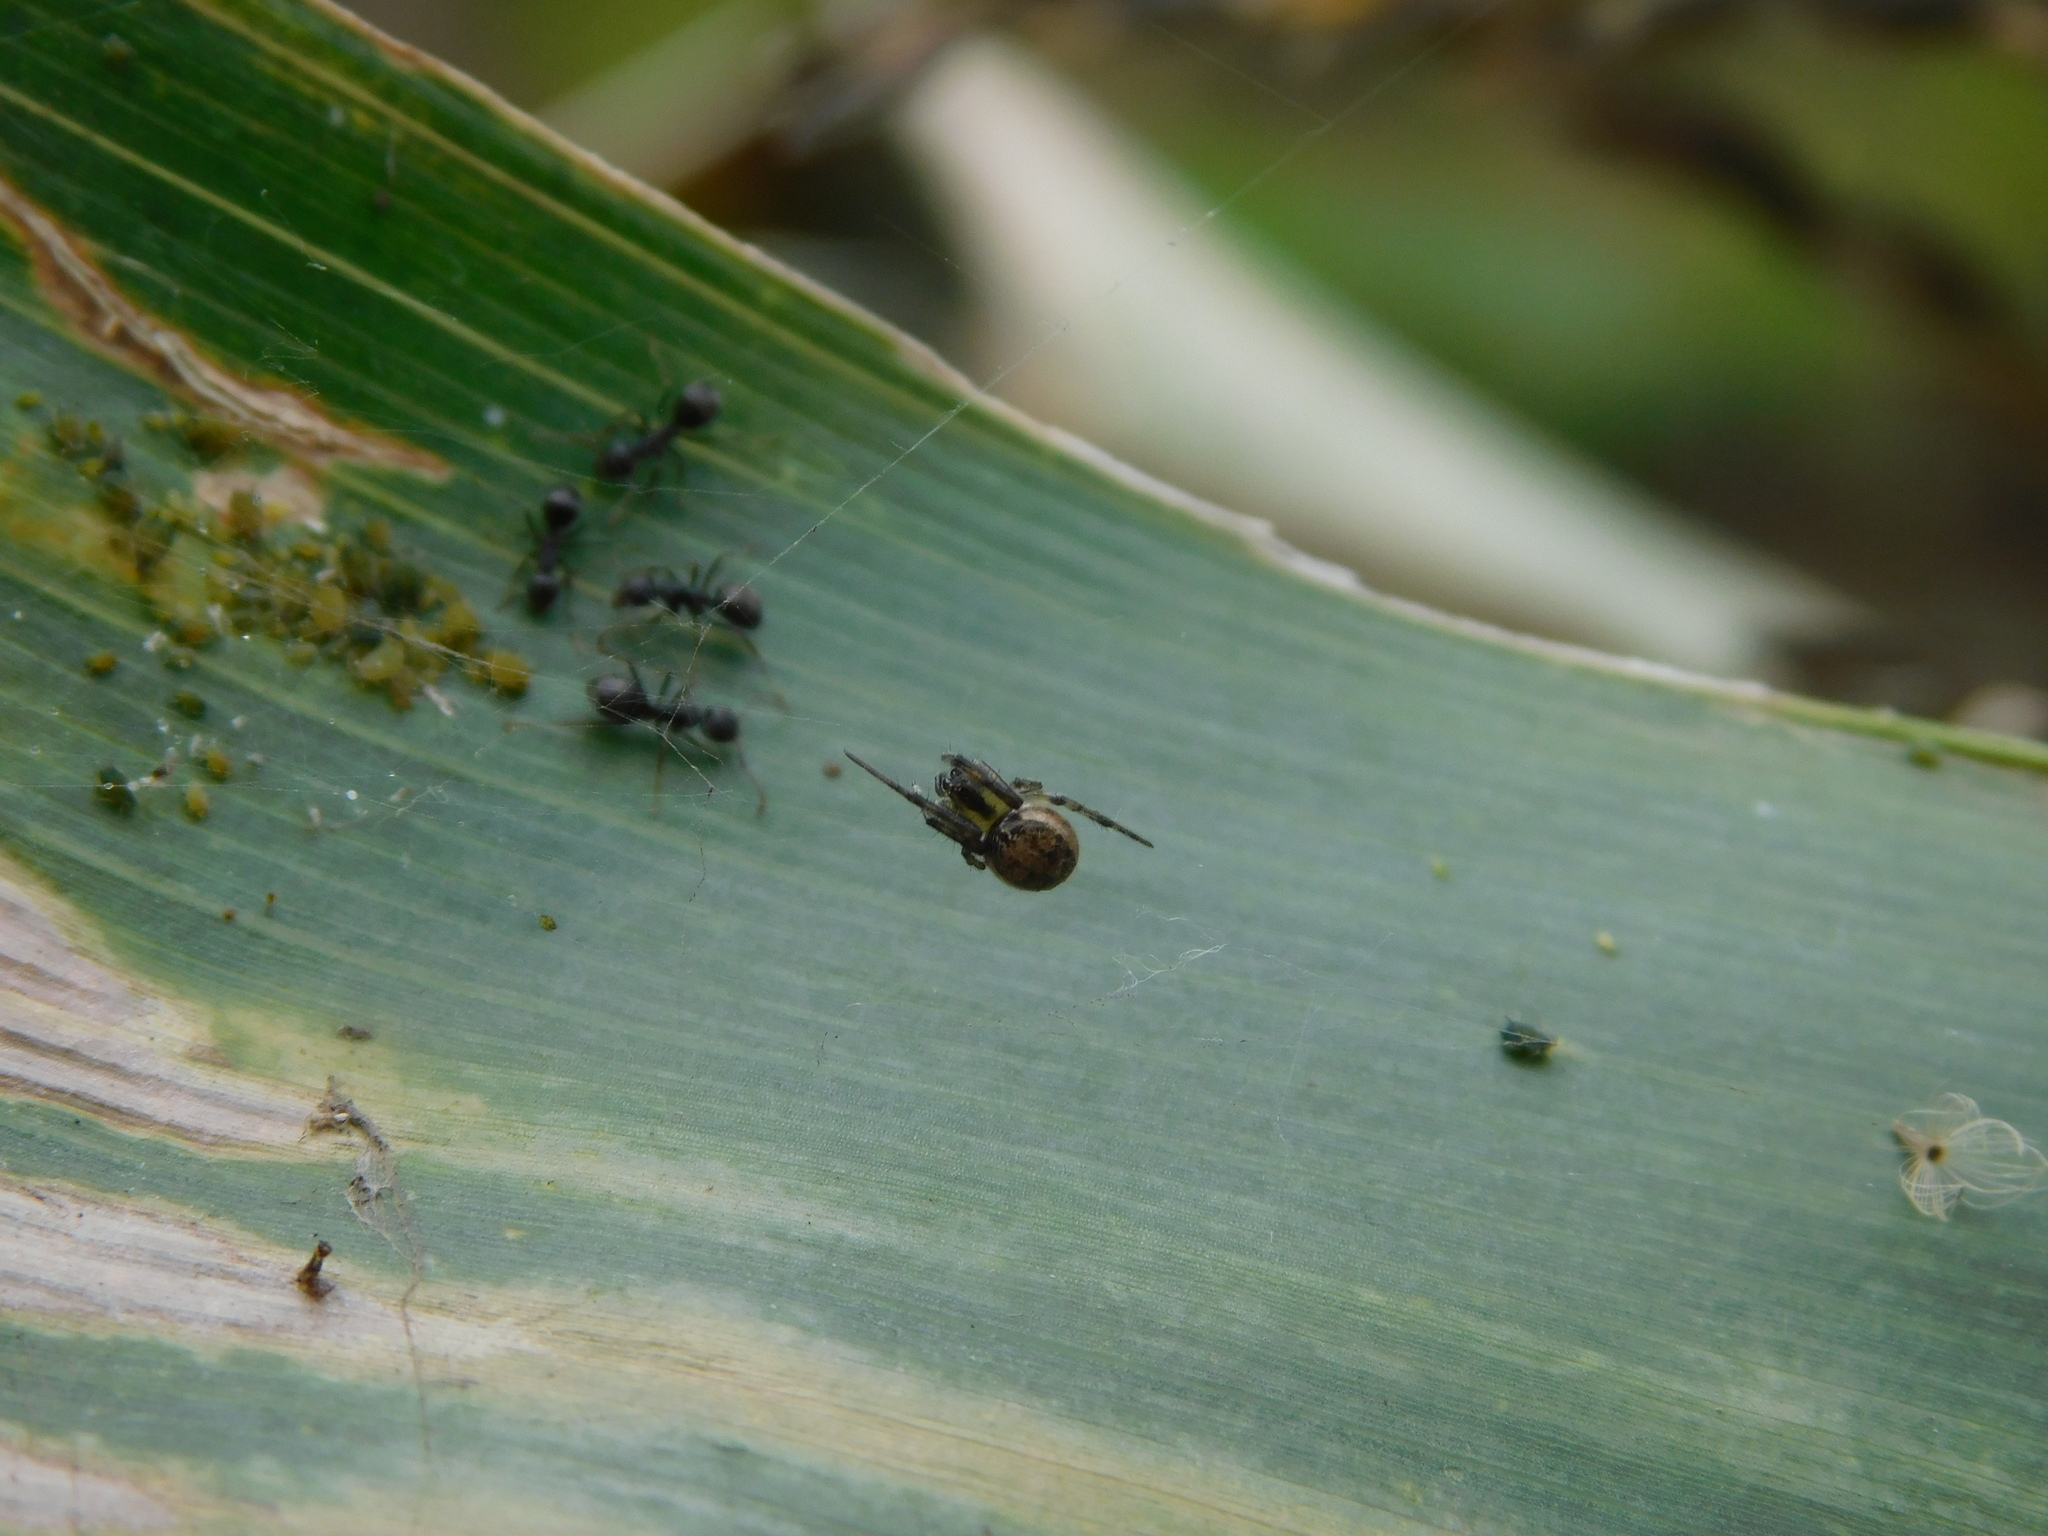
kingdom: Animalia
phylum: Arthropoda
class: Arachnida
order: Araneae
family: Araneidae
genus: Neoscona
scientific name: Neoscona inusta
